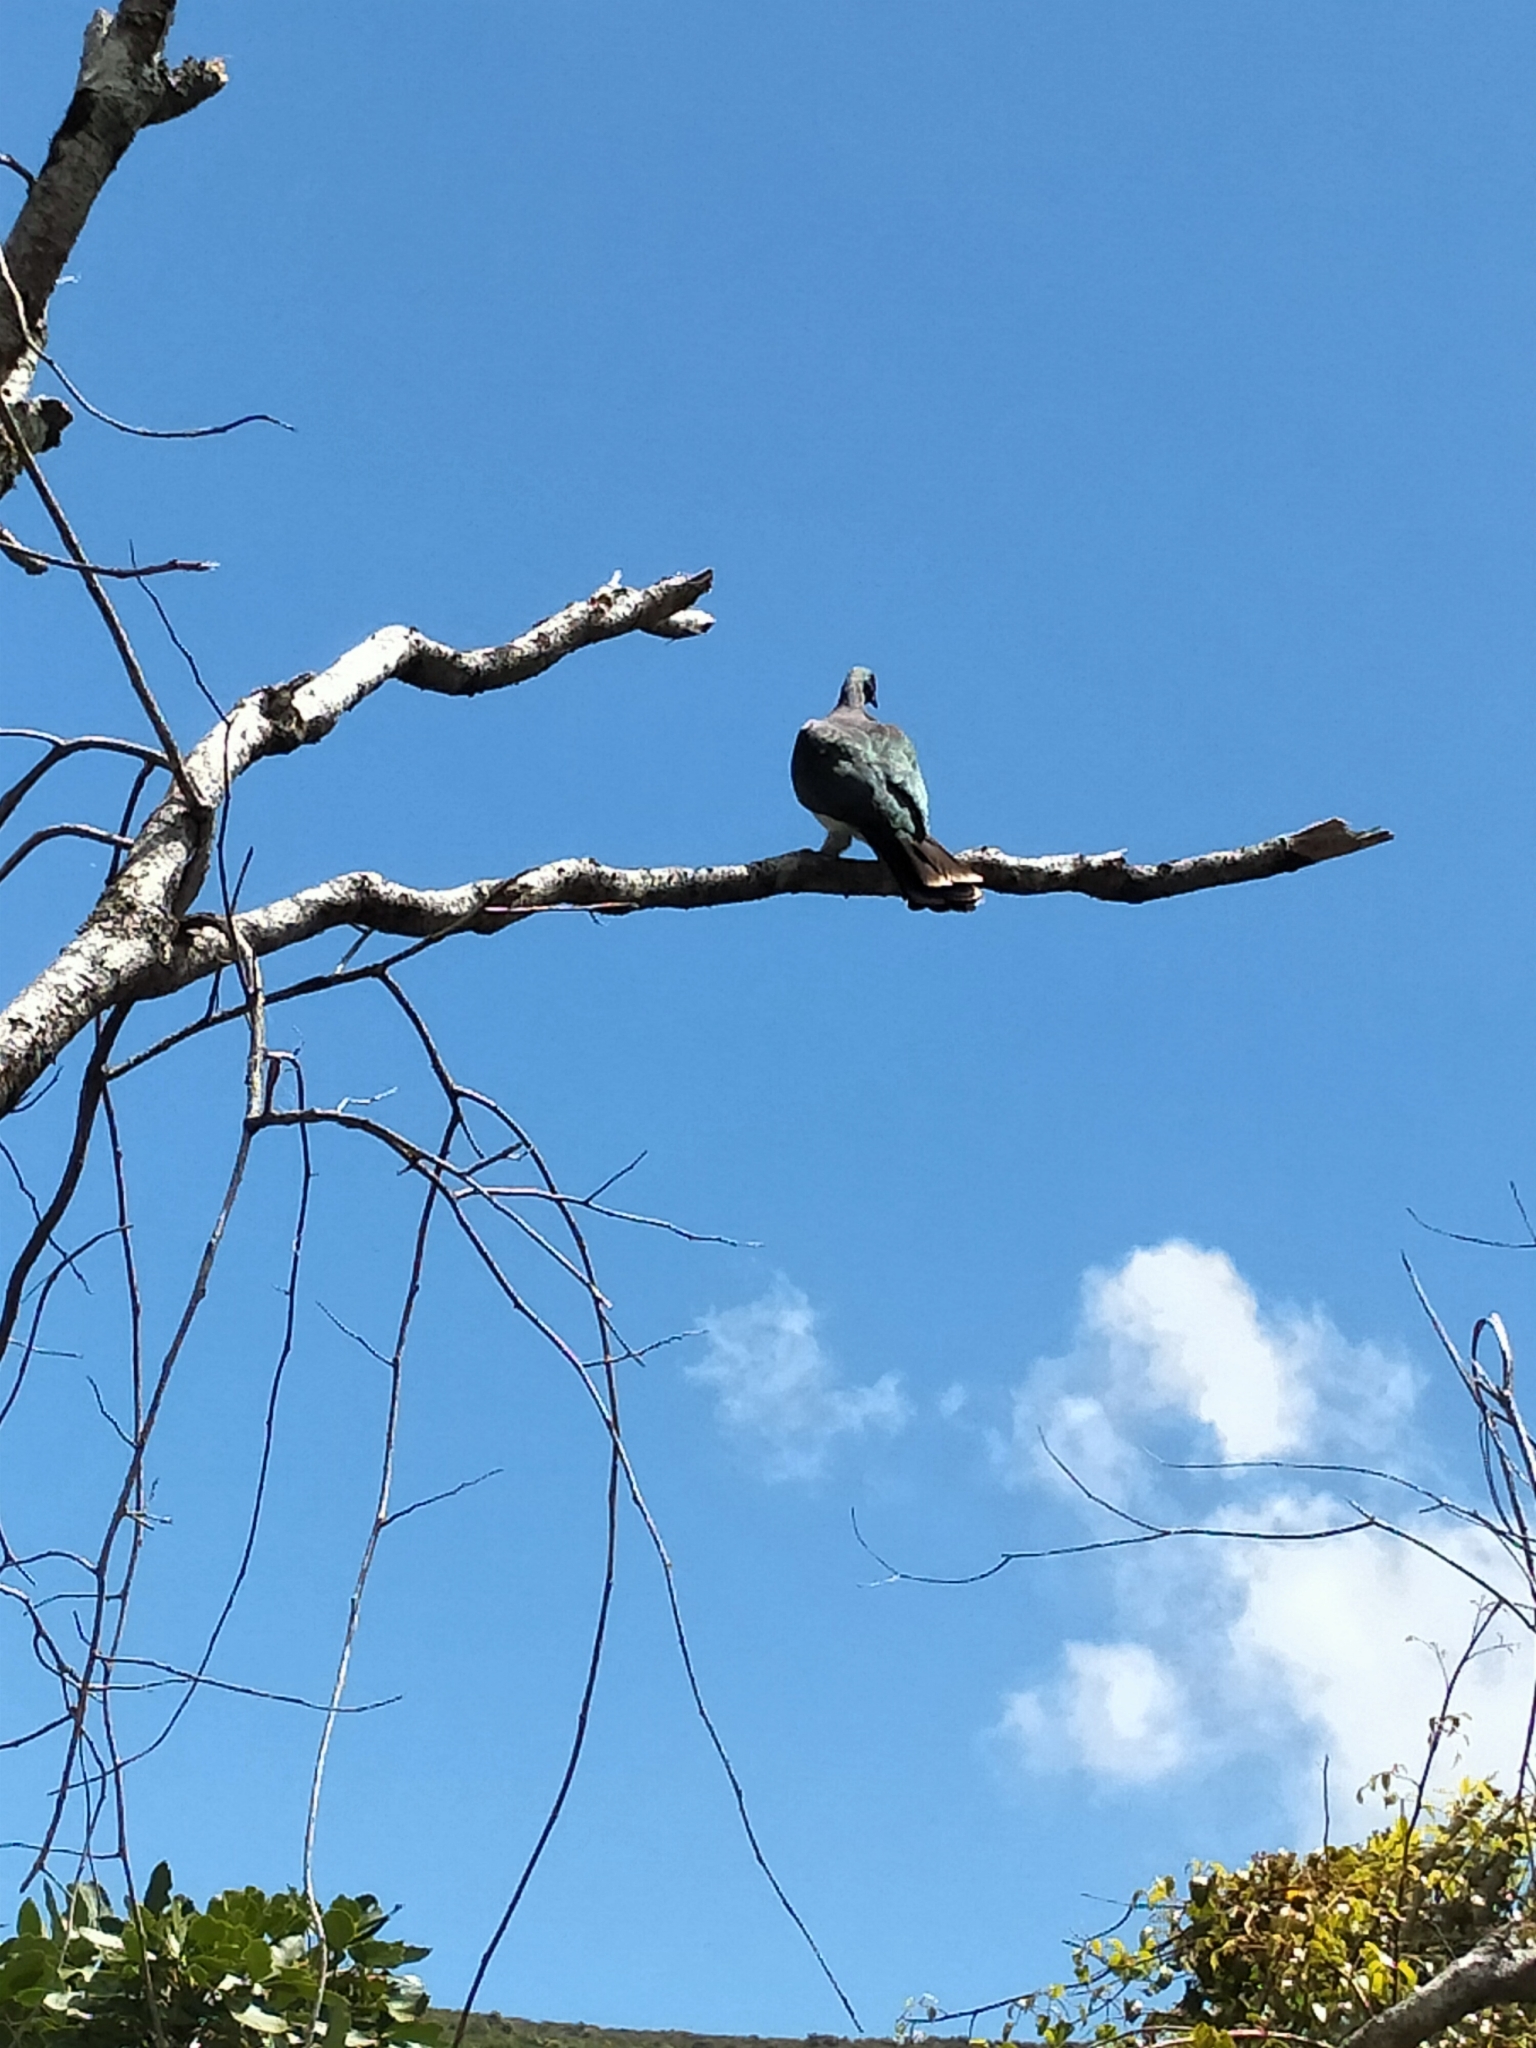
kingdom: Animalia
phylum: Chordata
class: Aves
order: Columbiformes
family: Columbidae
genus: Hemiphaga
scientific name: Hemiphaga novaeseelandiae
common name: New zealand pigeon
